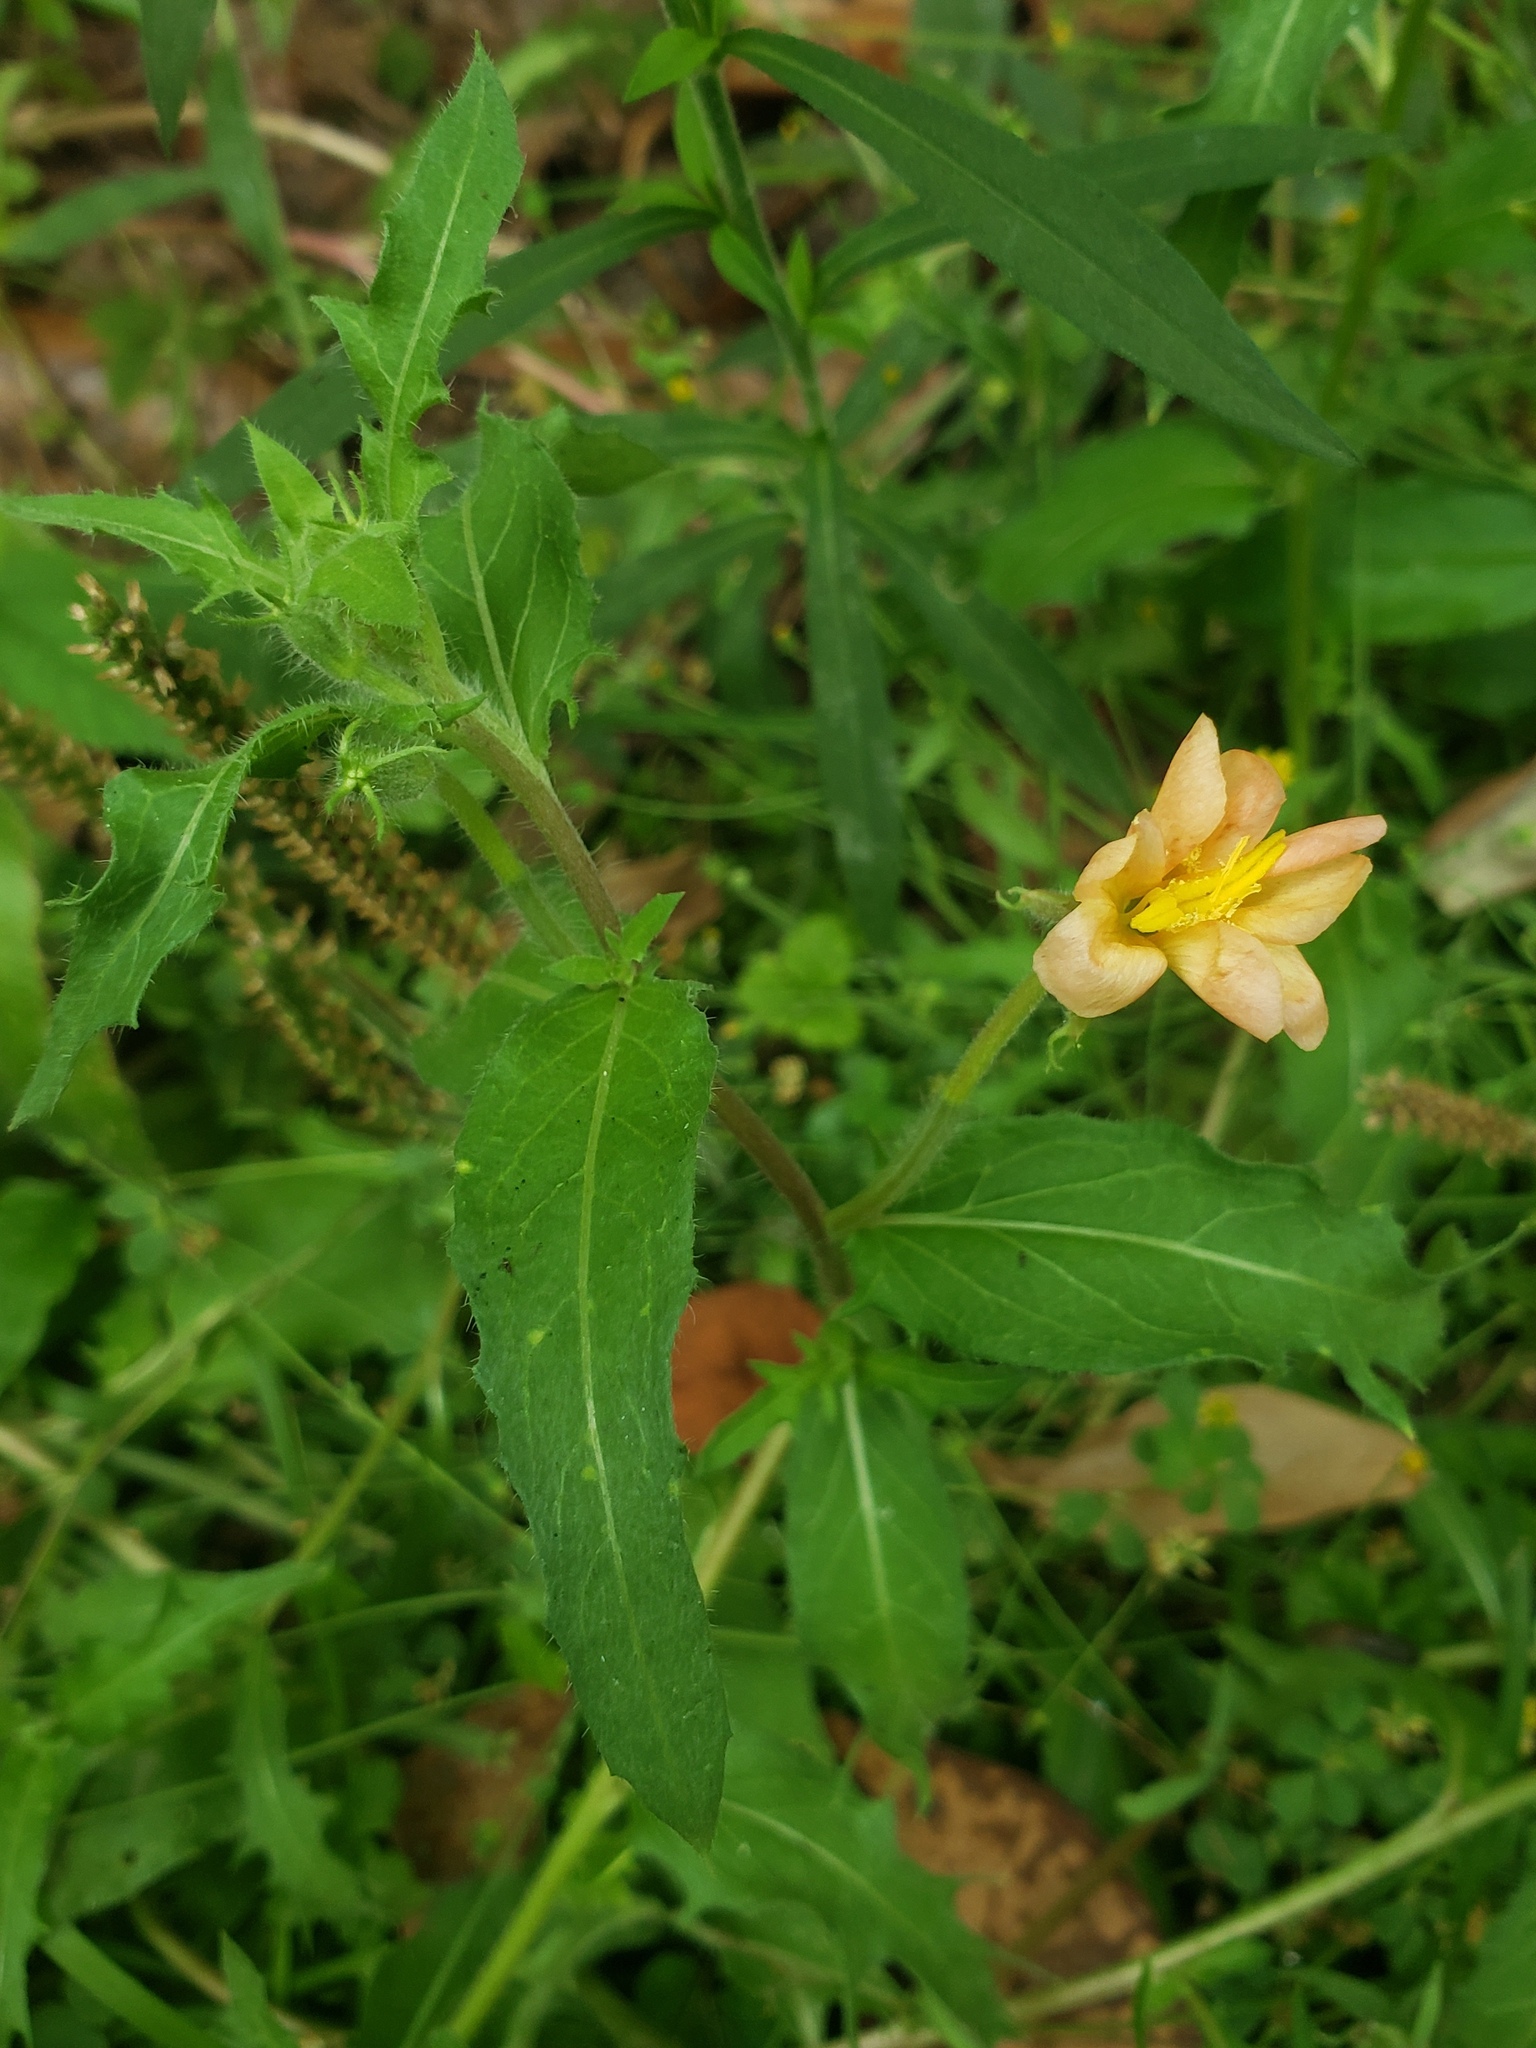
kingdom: Plantae
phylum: Tracheophyta
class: Magnoliopsida
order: Myrtales
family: Onagraceae
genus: Oenothera
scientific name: Oenothera laciniata
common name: Cut-leaved evening-primrose
